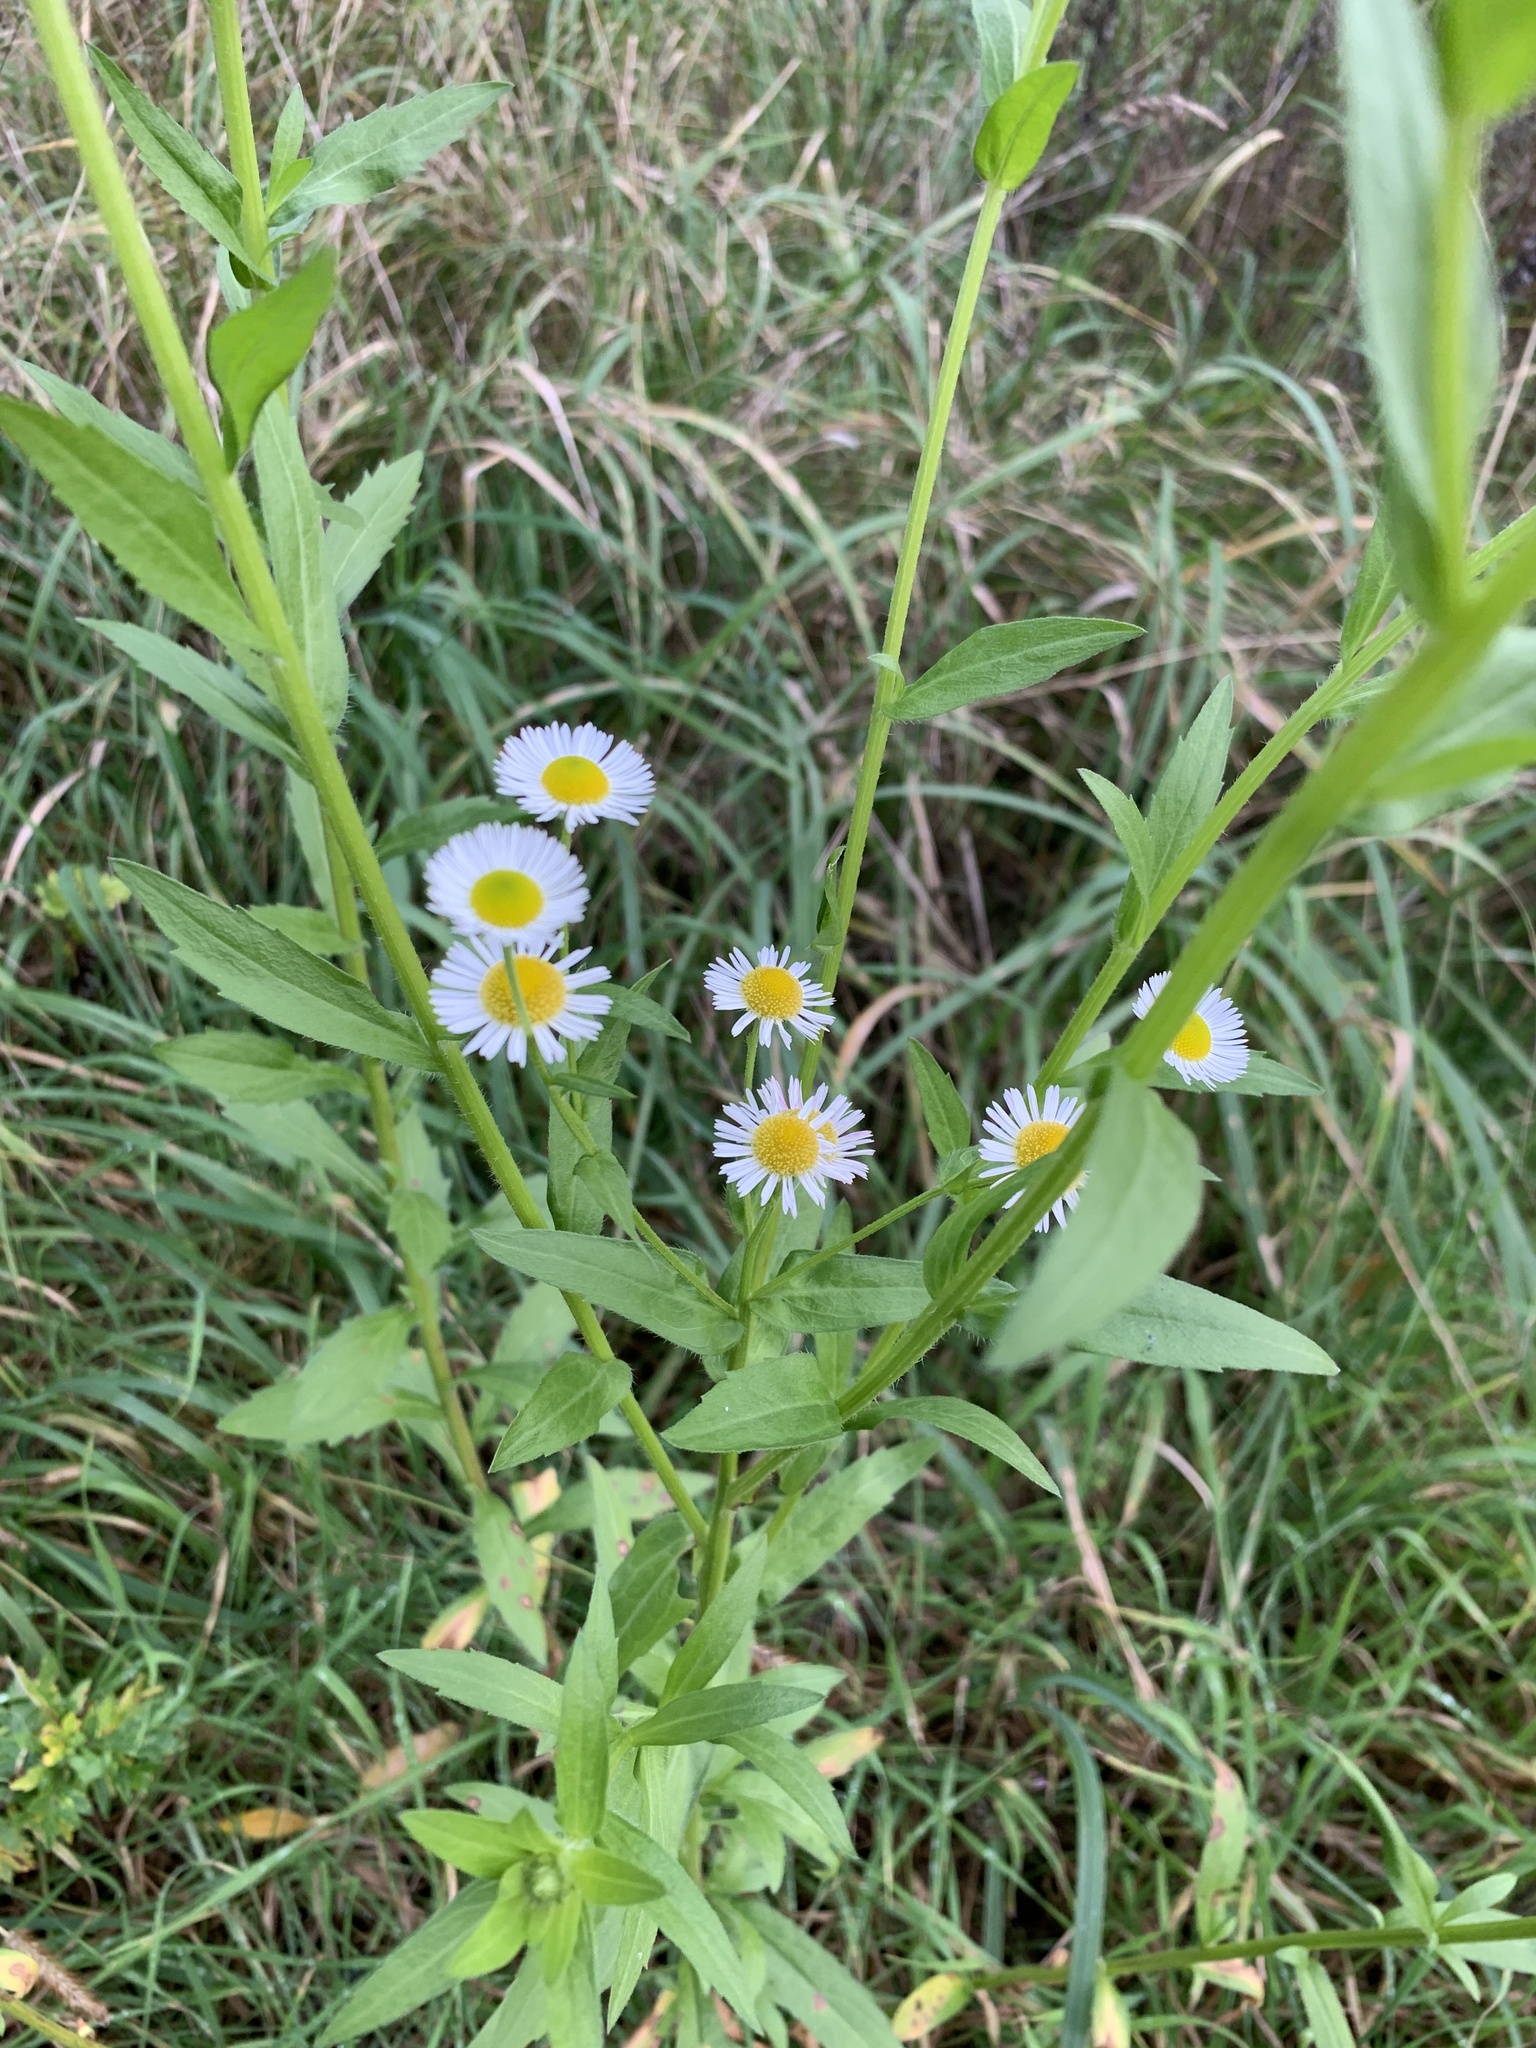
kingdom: Plantae
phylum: Tracheophyta
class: Magnoliopsida
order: Asterales
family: Asteraceae
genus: Erigeron
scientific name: Erigeron annuus
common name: Tall fleabane
